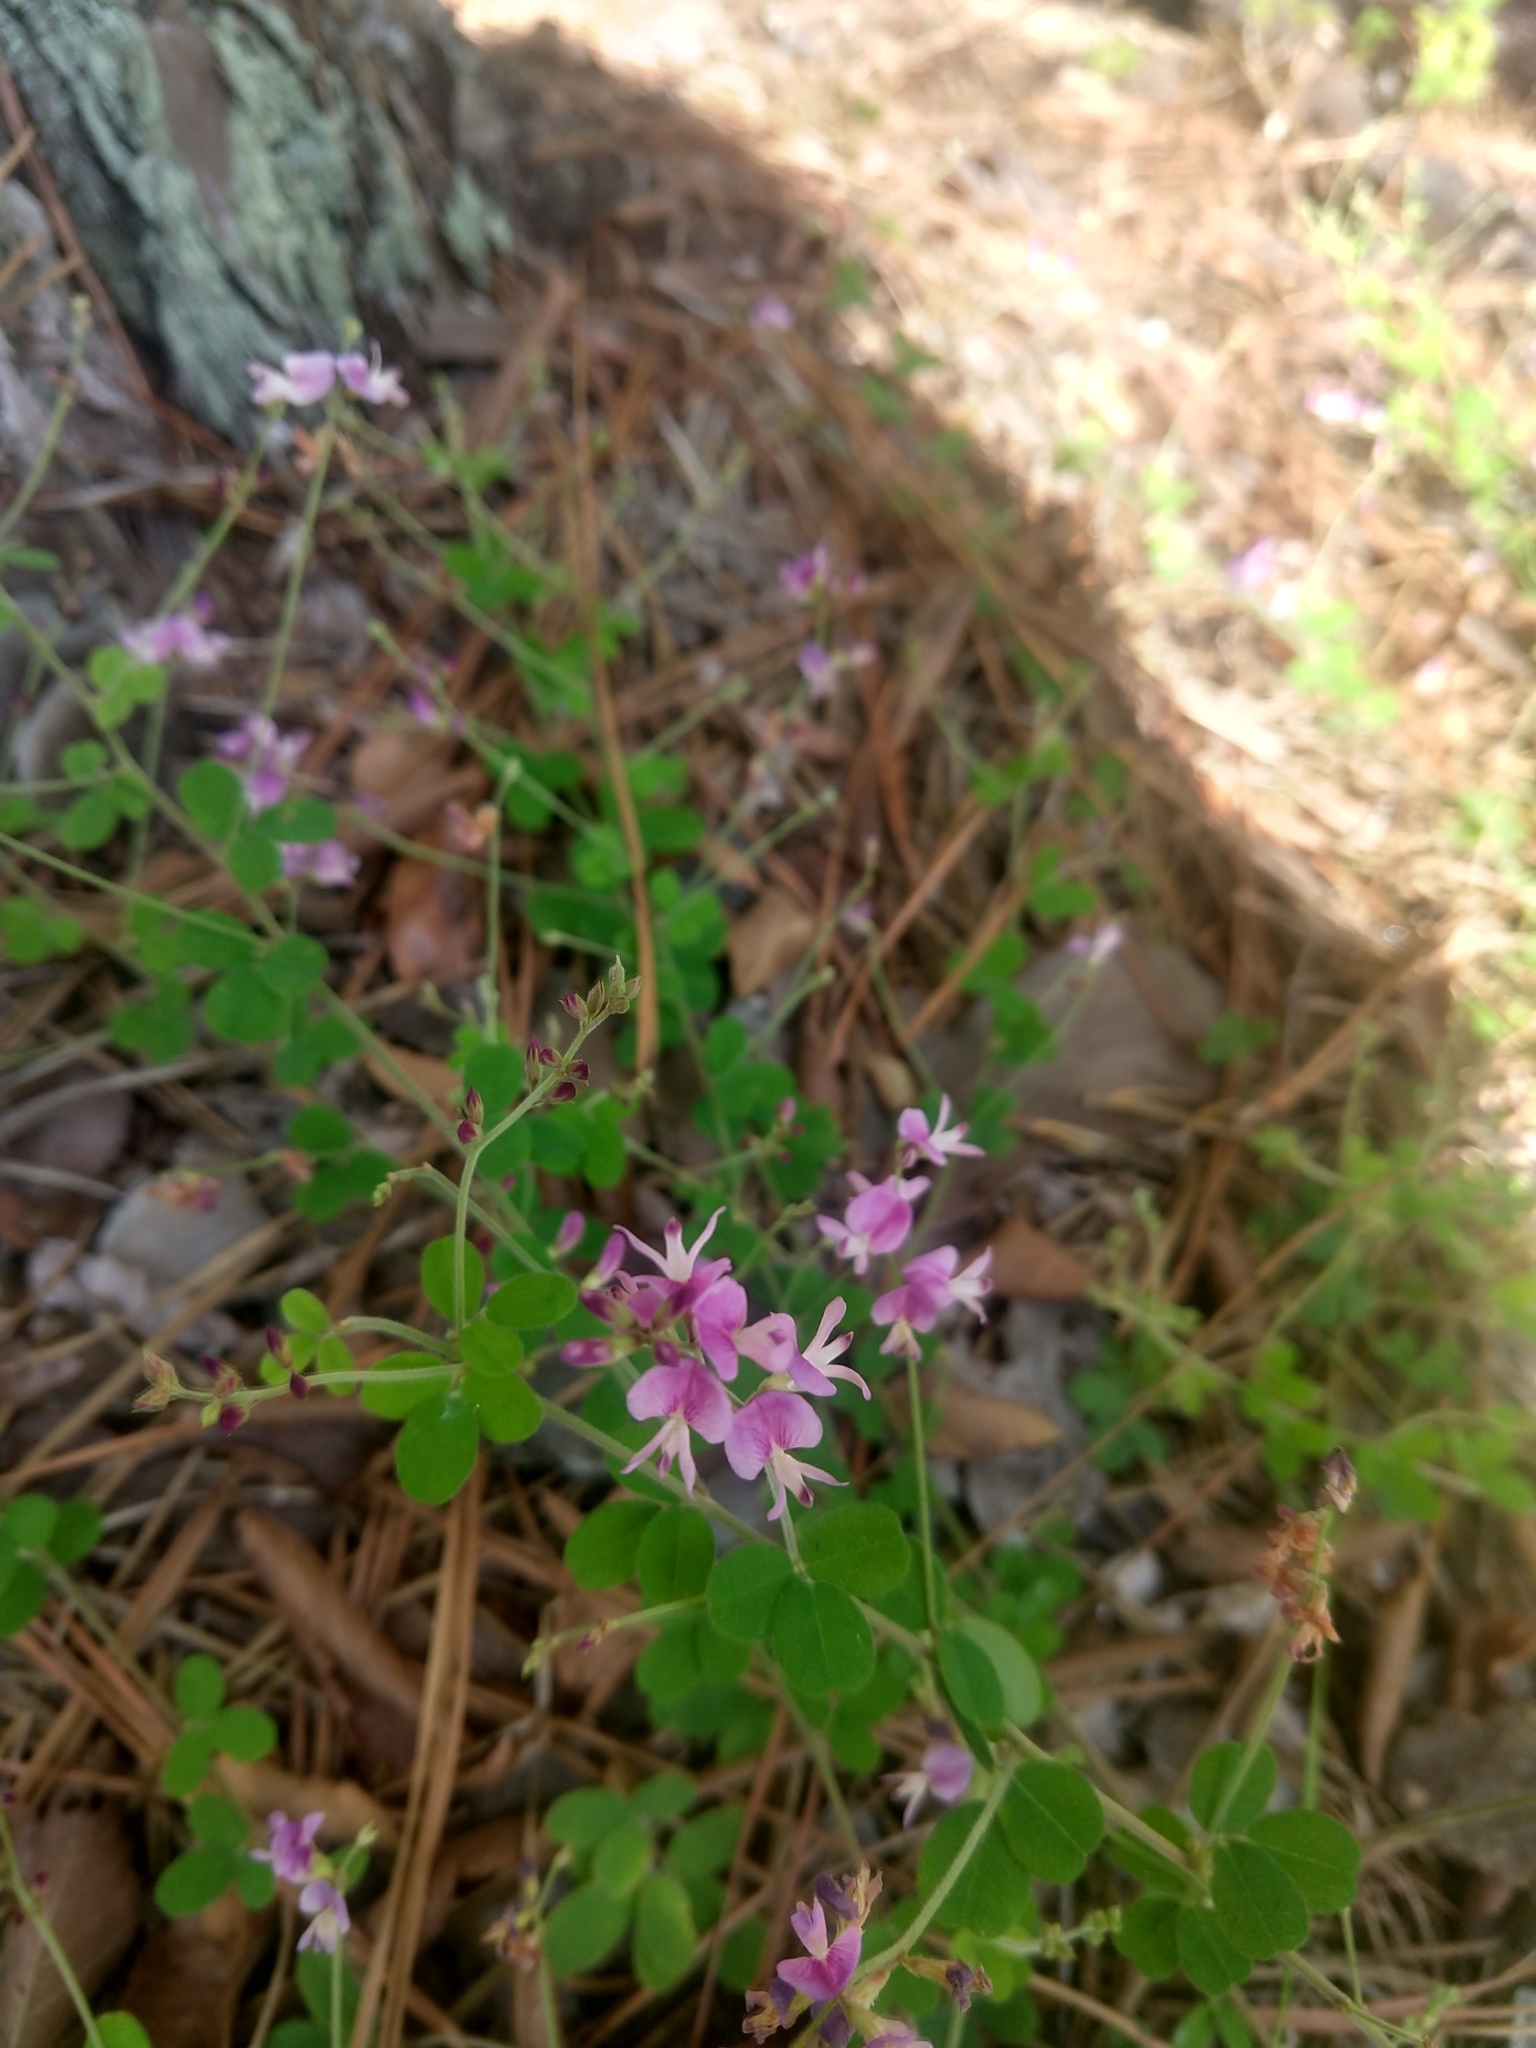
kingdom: Plantae
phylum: Tracheophyta
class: Magnoliopsida
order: Fabales
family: Fabaceae
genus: Lespedeza
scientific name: Lespedeza procumbens
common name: Downy trailing bush-clover
